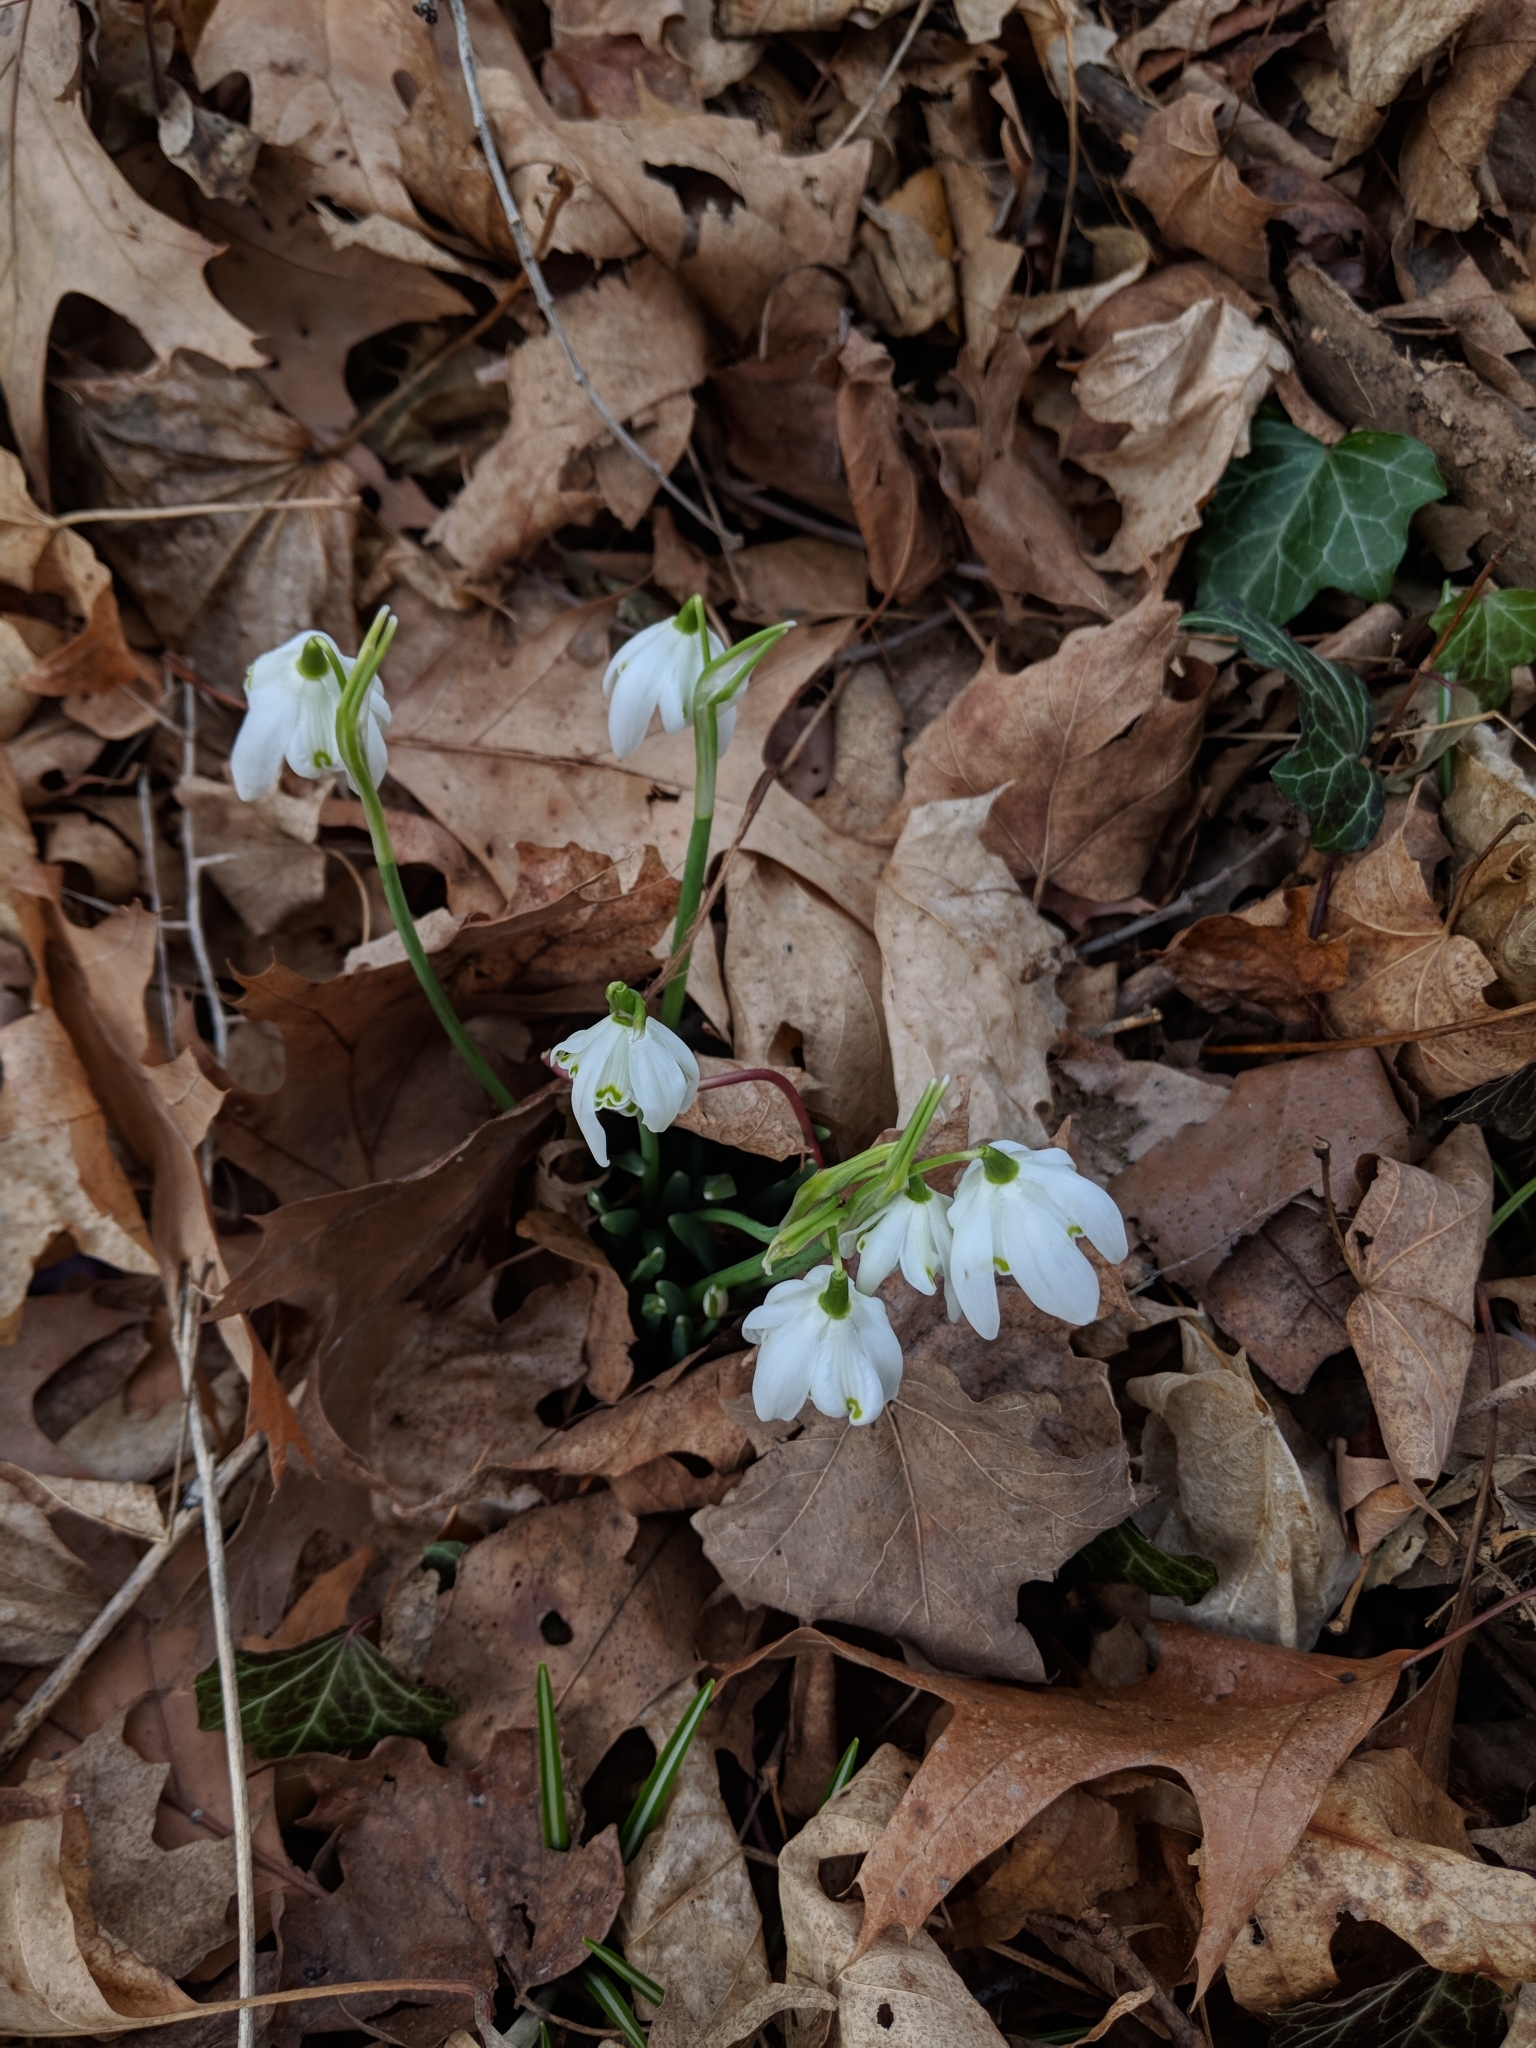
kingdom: Plantae
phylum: Tracheophyta
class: Liliopsida
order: Asparagales
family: Amaryllidaceae
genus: Galanthus
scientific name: Galanthus nivalis
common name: Snowdrop
